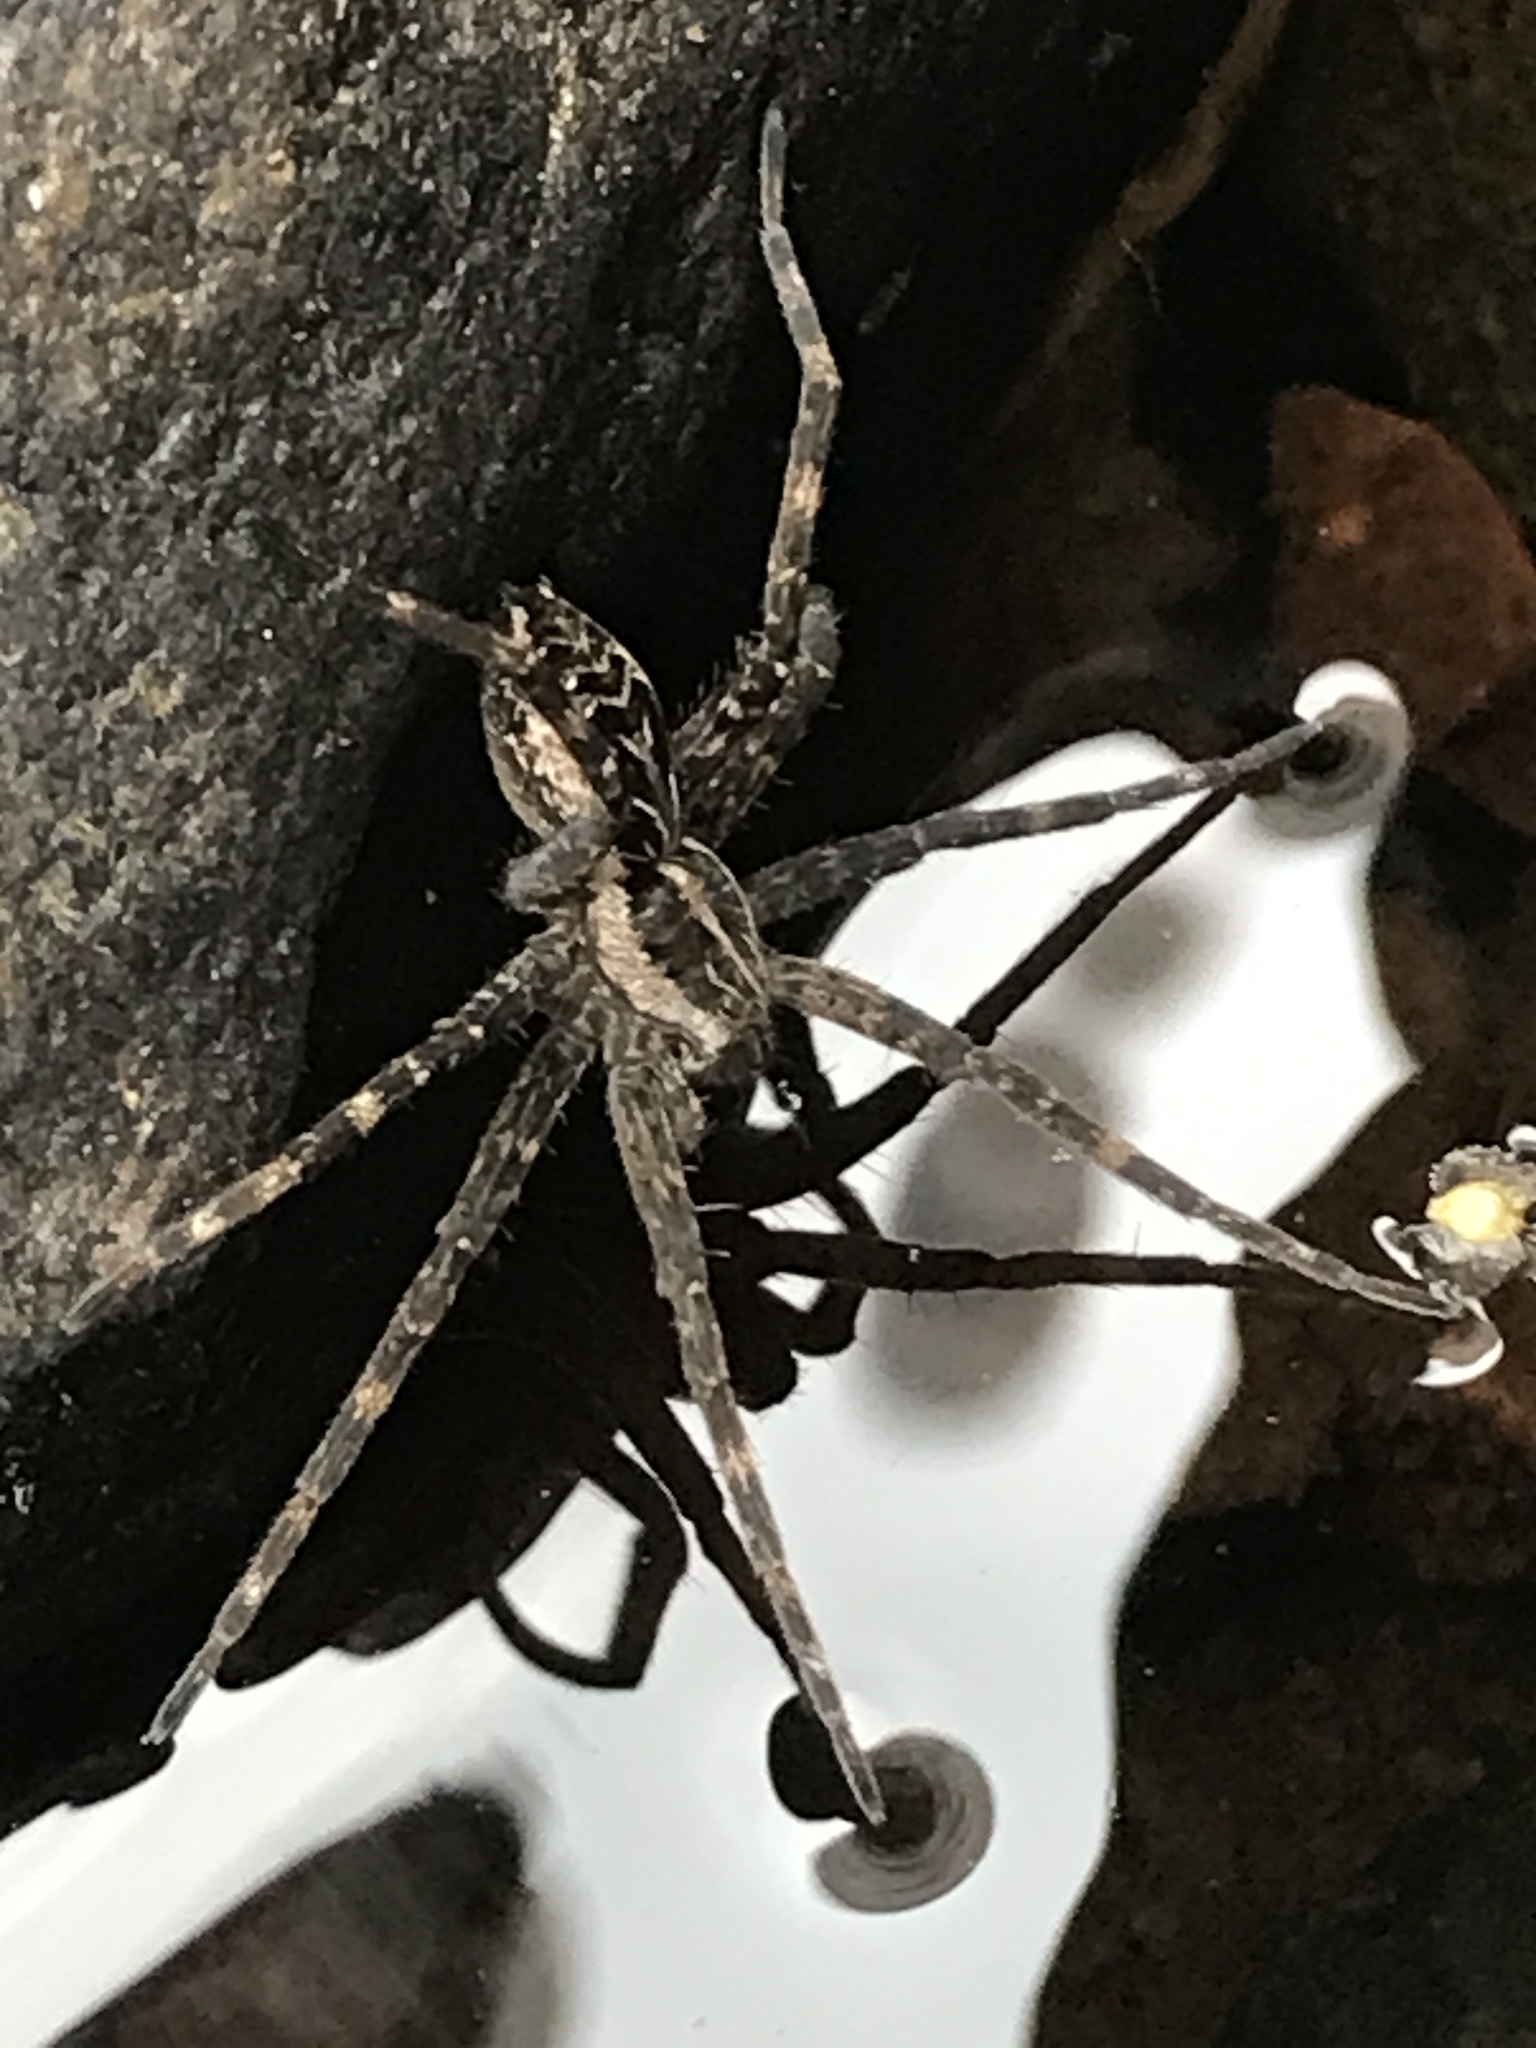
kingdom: Animalia
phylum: Arthropoda
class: Arachnida
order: Araneae
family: Pisauridae
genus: Dolomedes
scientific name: Dolomedes scriptus
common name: Striped fishing spider
